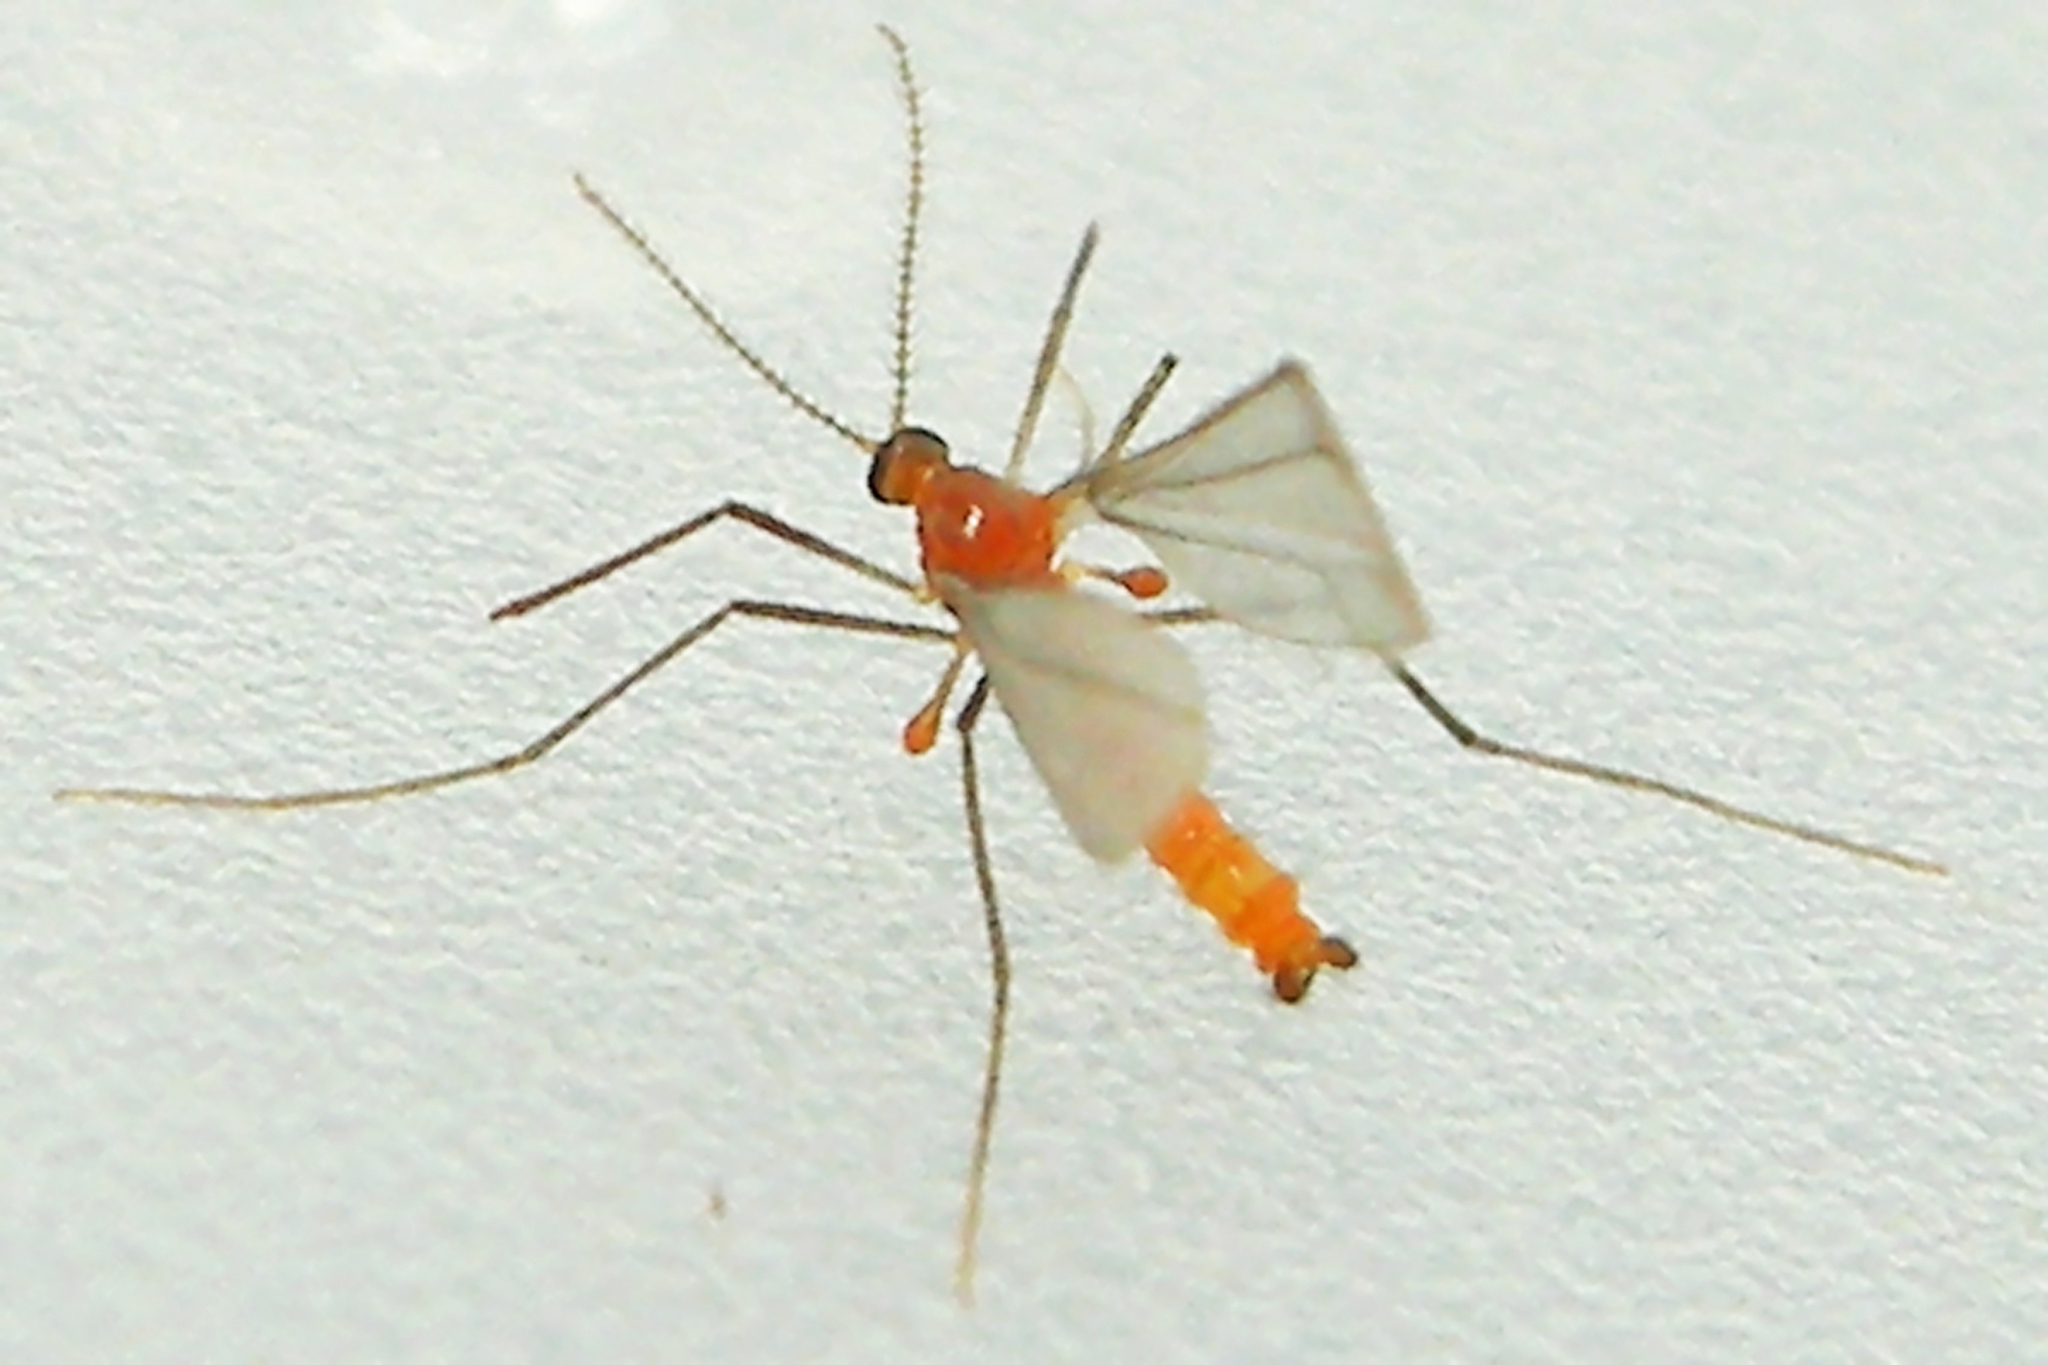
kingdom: Animalia
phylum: Arthropoda
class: Insecta
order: Diptera
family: Cecidomyiidae
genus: Monarthropalpus
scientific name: Monarthropalpus flavus
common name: Boxwood leafminer
